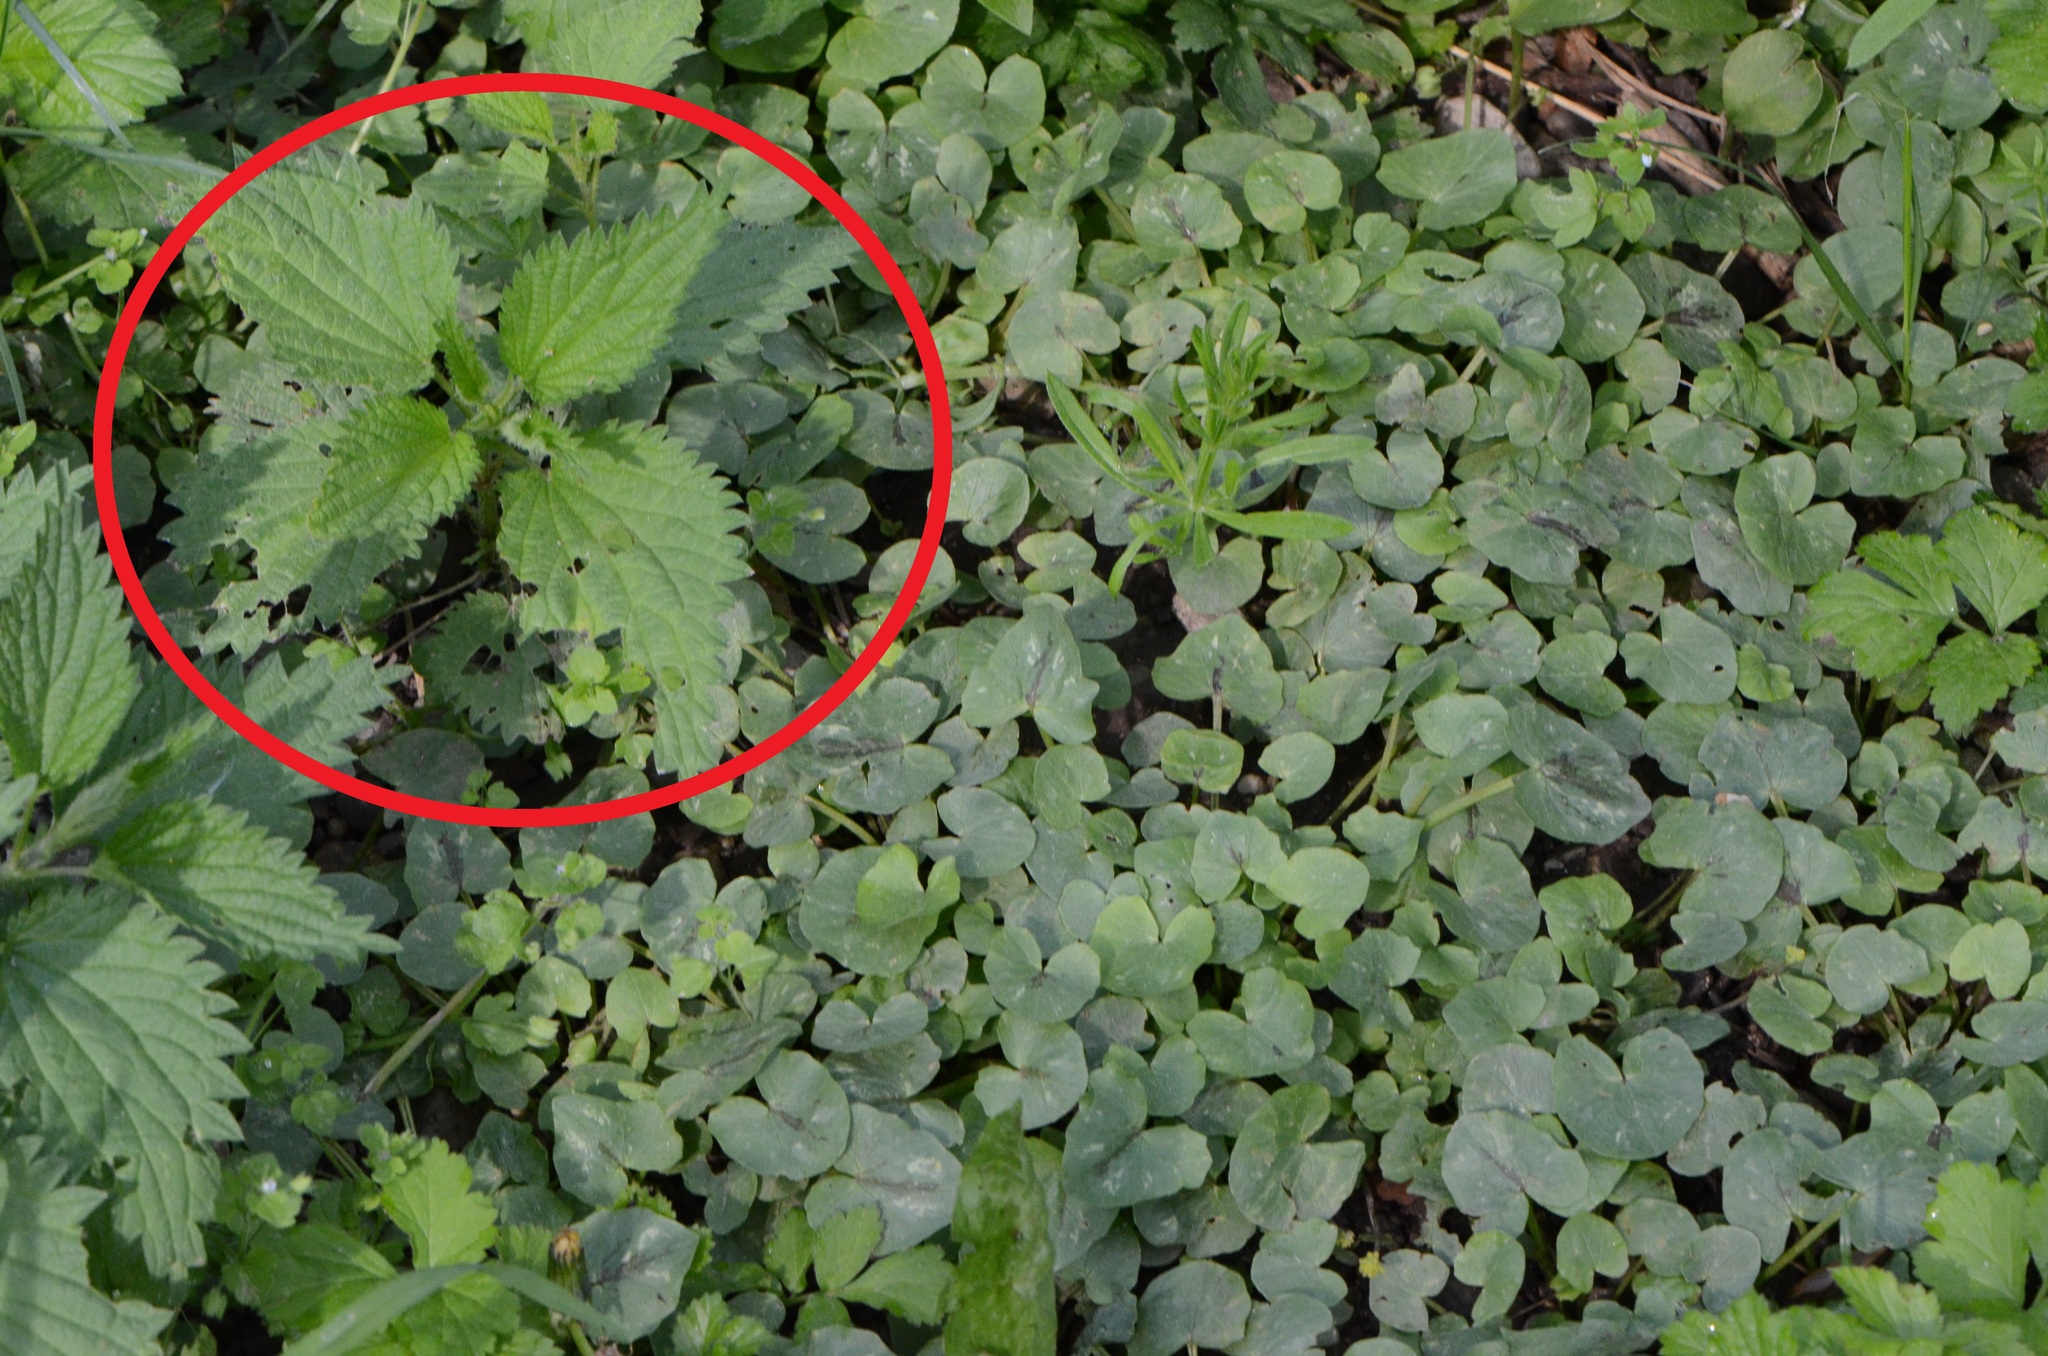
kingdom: Plantae
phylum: Tracheophyta
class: Magnoliopsida
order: Rosales
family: Urticaceae
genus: Urtica
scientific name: Urtica dioica
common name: Common nettle
